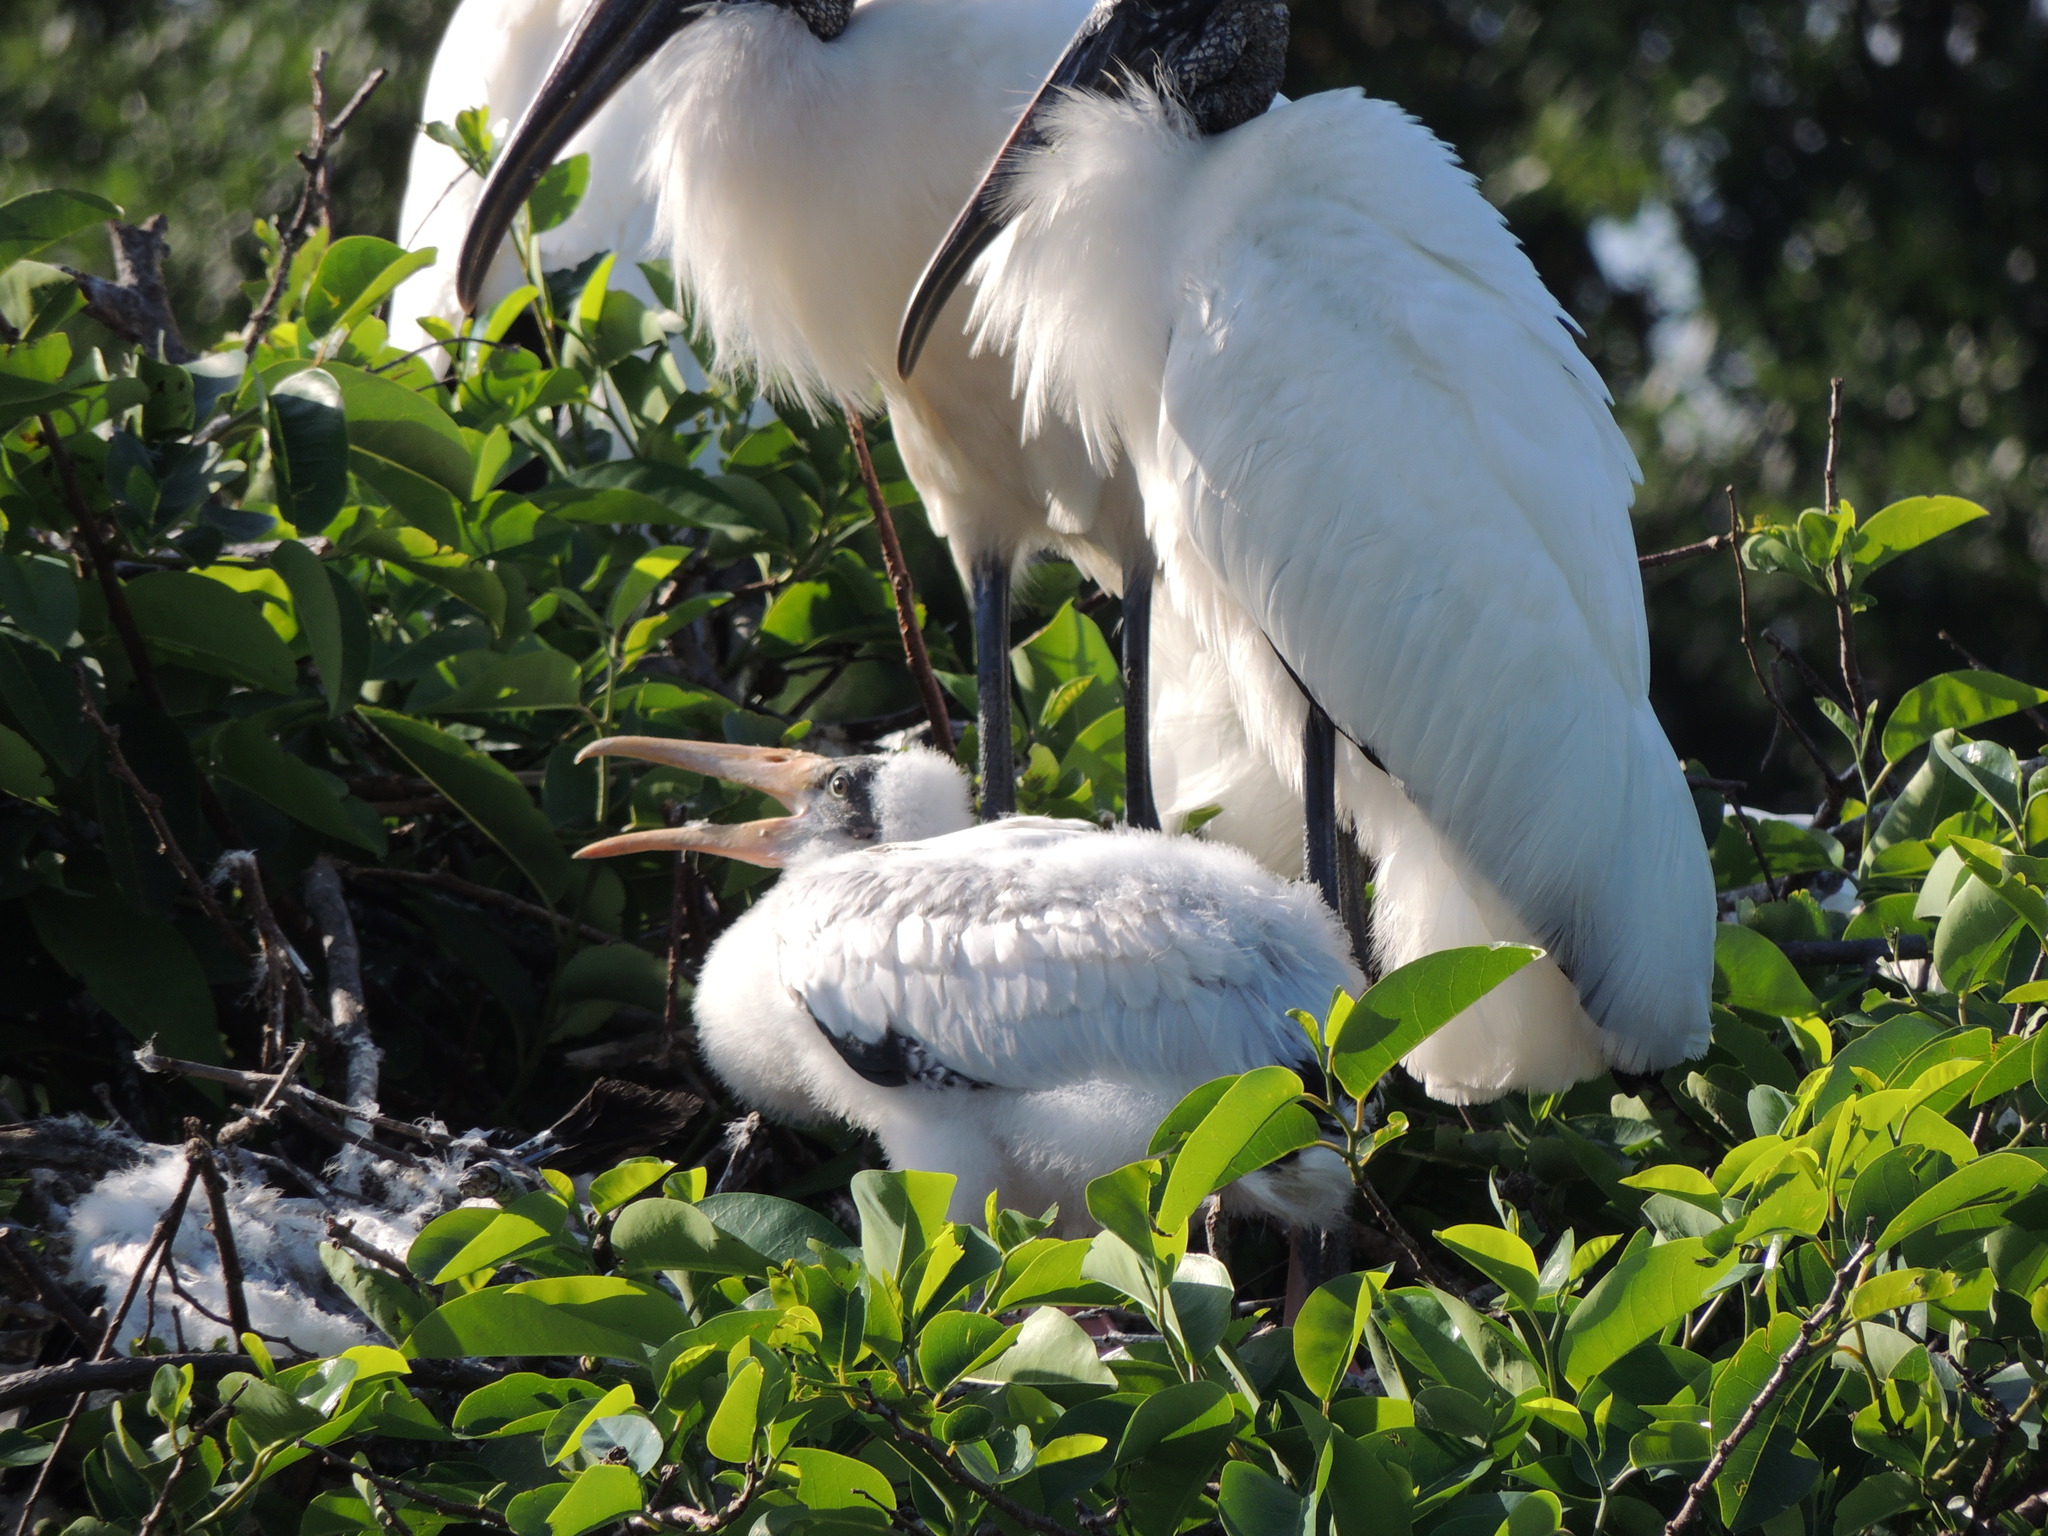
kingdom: Animalia
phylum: Chordata
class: Aves
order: Ciconiiformes
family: Ciconiidae
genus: Mycteria
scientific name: Mycteria americana
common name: Wood stork
